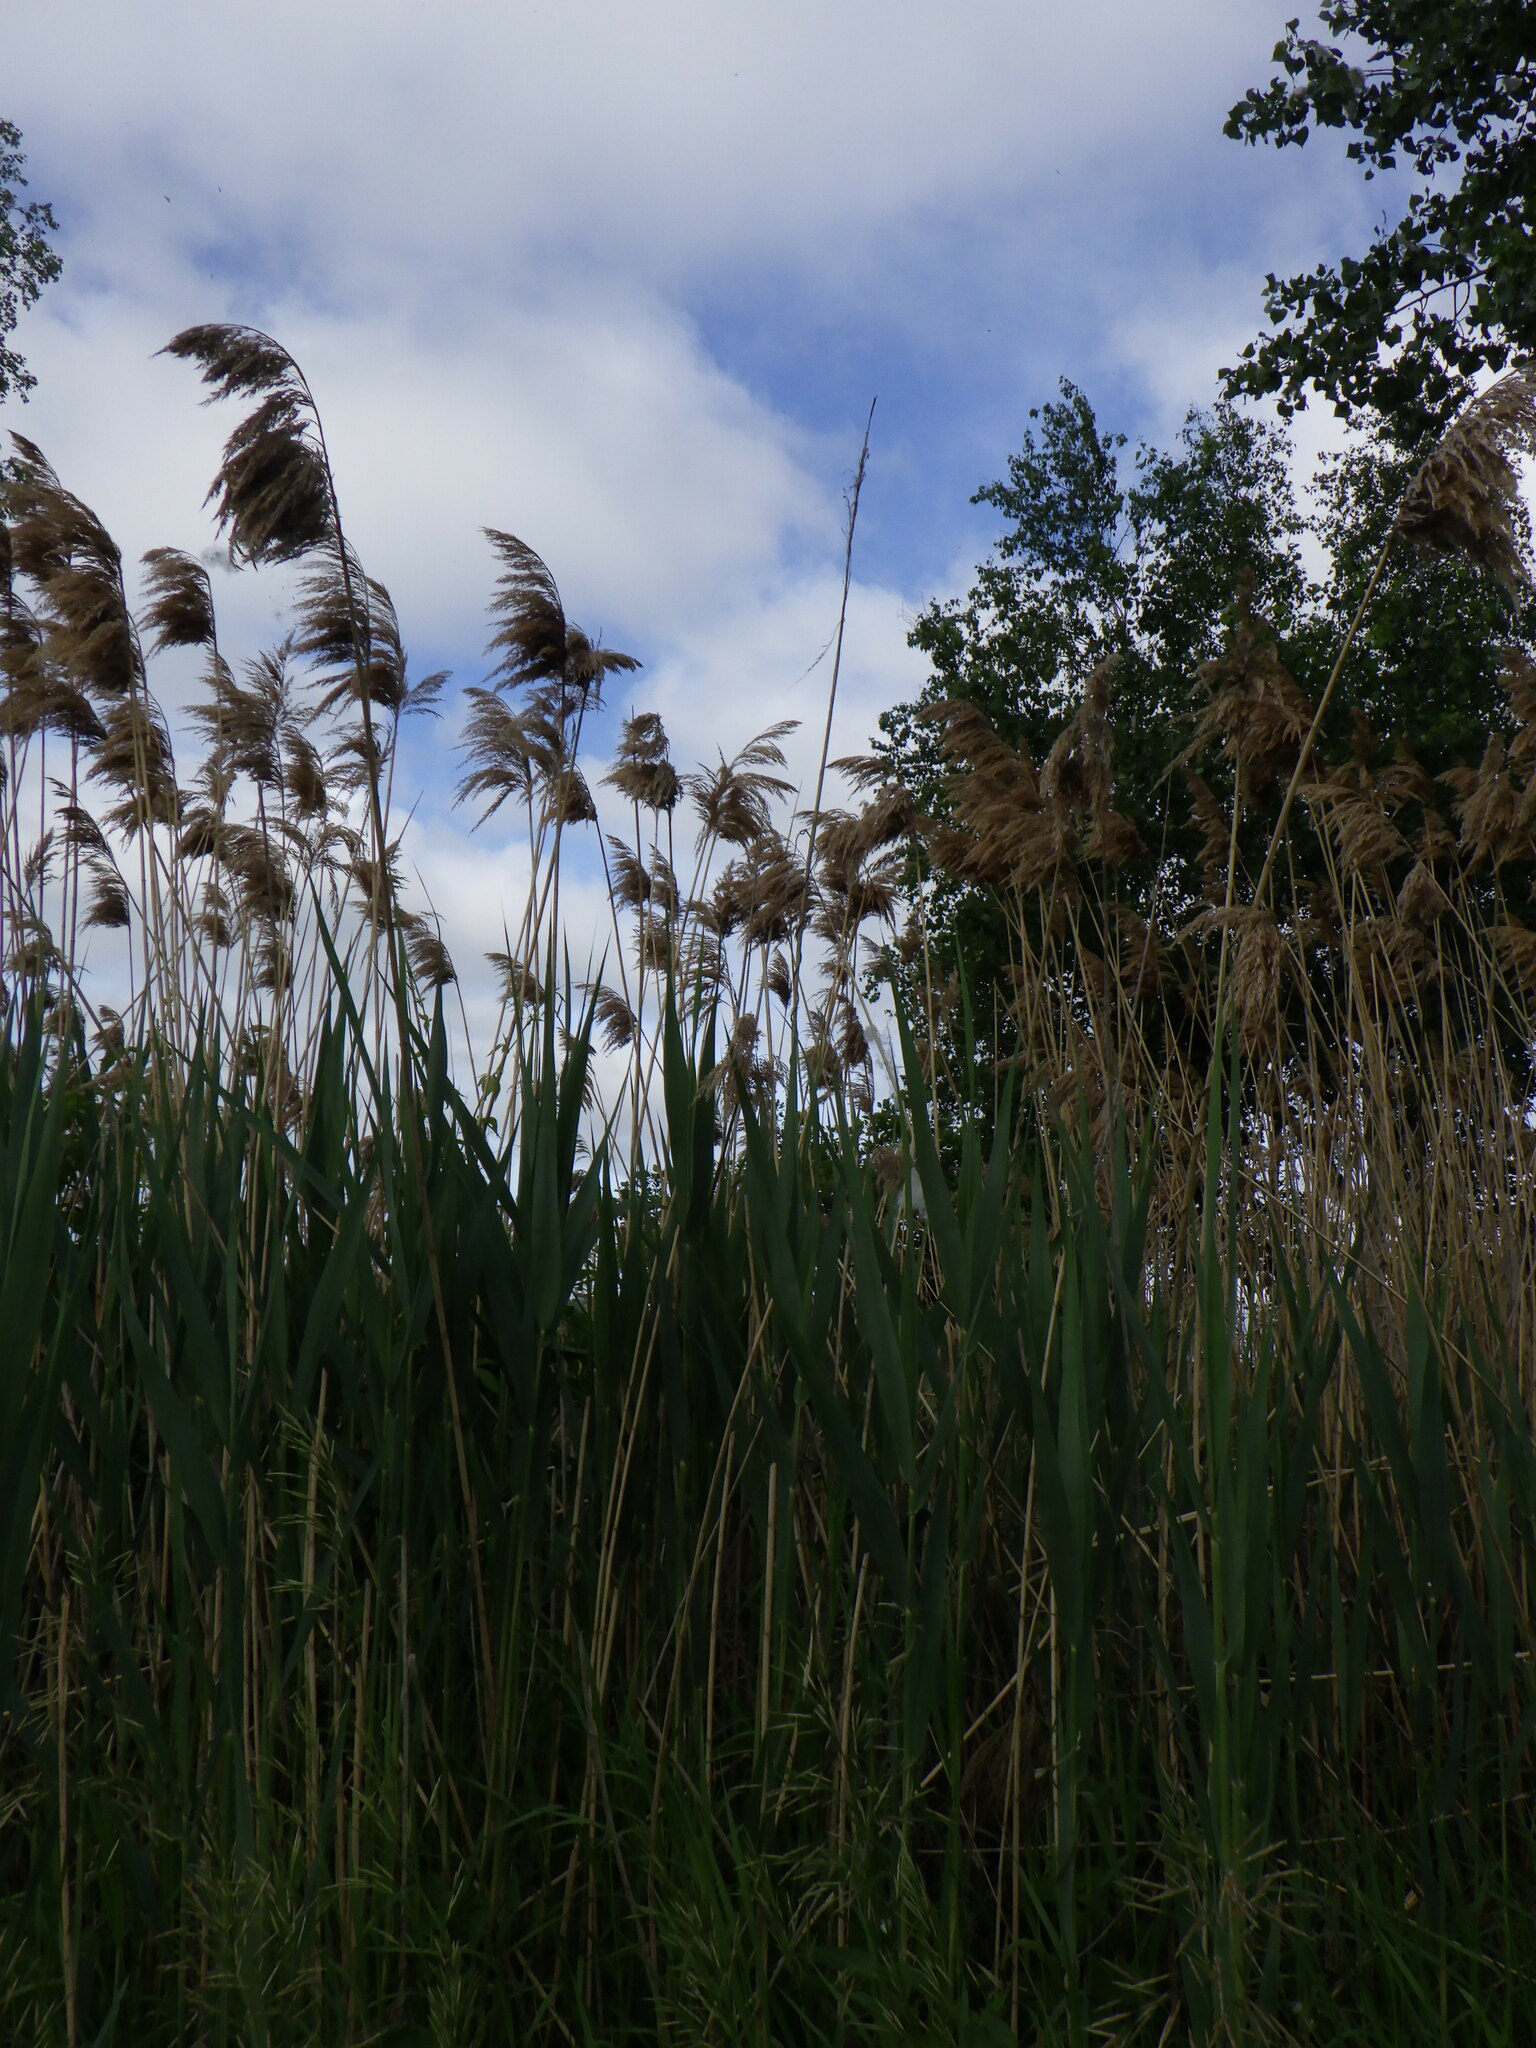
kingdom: Plantae
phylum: Tracheophyta
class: Liliopsida
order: Poales
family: Poaceae
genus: Phragmites
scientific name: Phragmites australis
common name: Common reed
